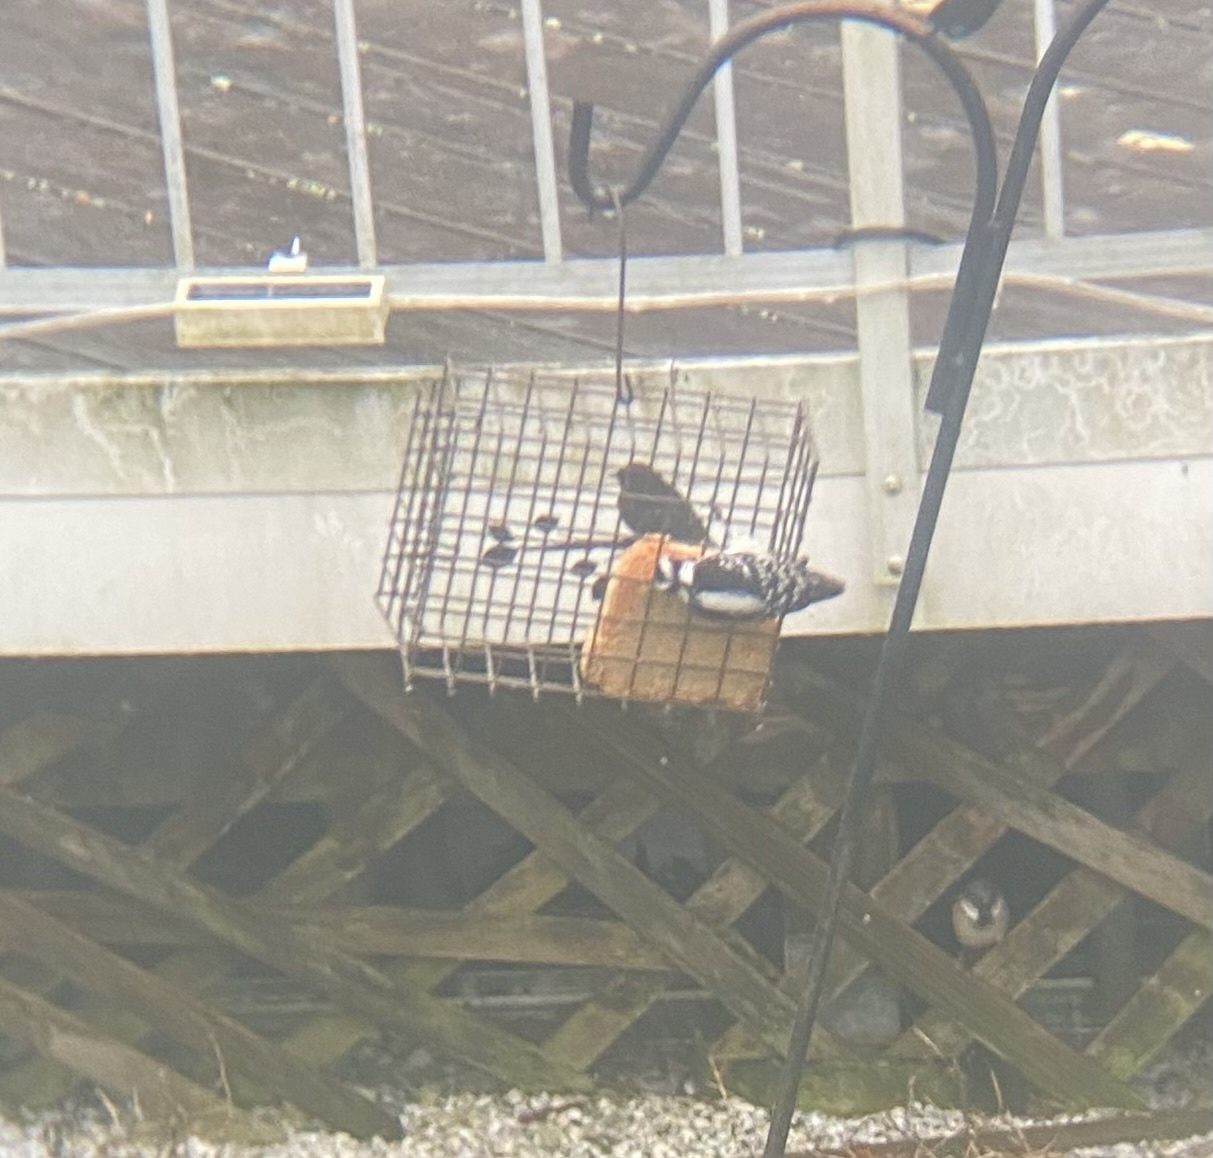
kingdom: Animalia
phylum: Chordata
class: Aves
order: Piciformes
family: Picidae
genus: Dryobates
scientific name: Dryobates pubescens
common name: Downy woodpecker
